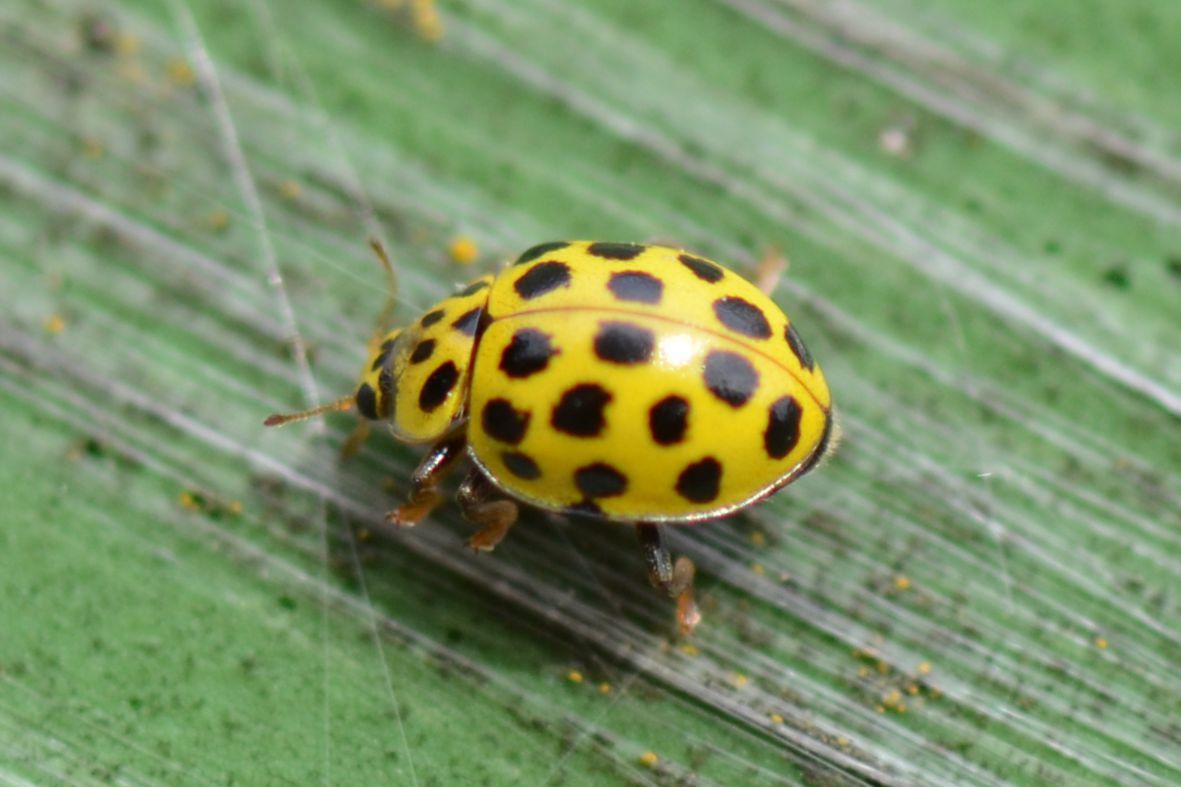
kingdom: Animalia
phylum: Arthropoda
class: Insecta
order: Coleoptera
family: Coccinellidae
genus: Psyllobora
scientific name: Psyllobora vigintiduopunctata
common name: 22-spot ladybird
